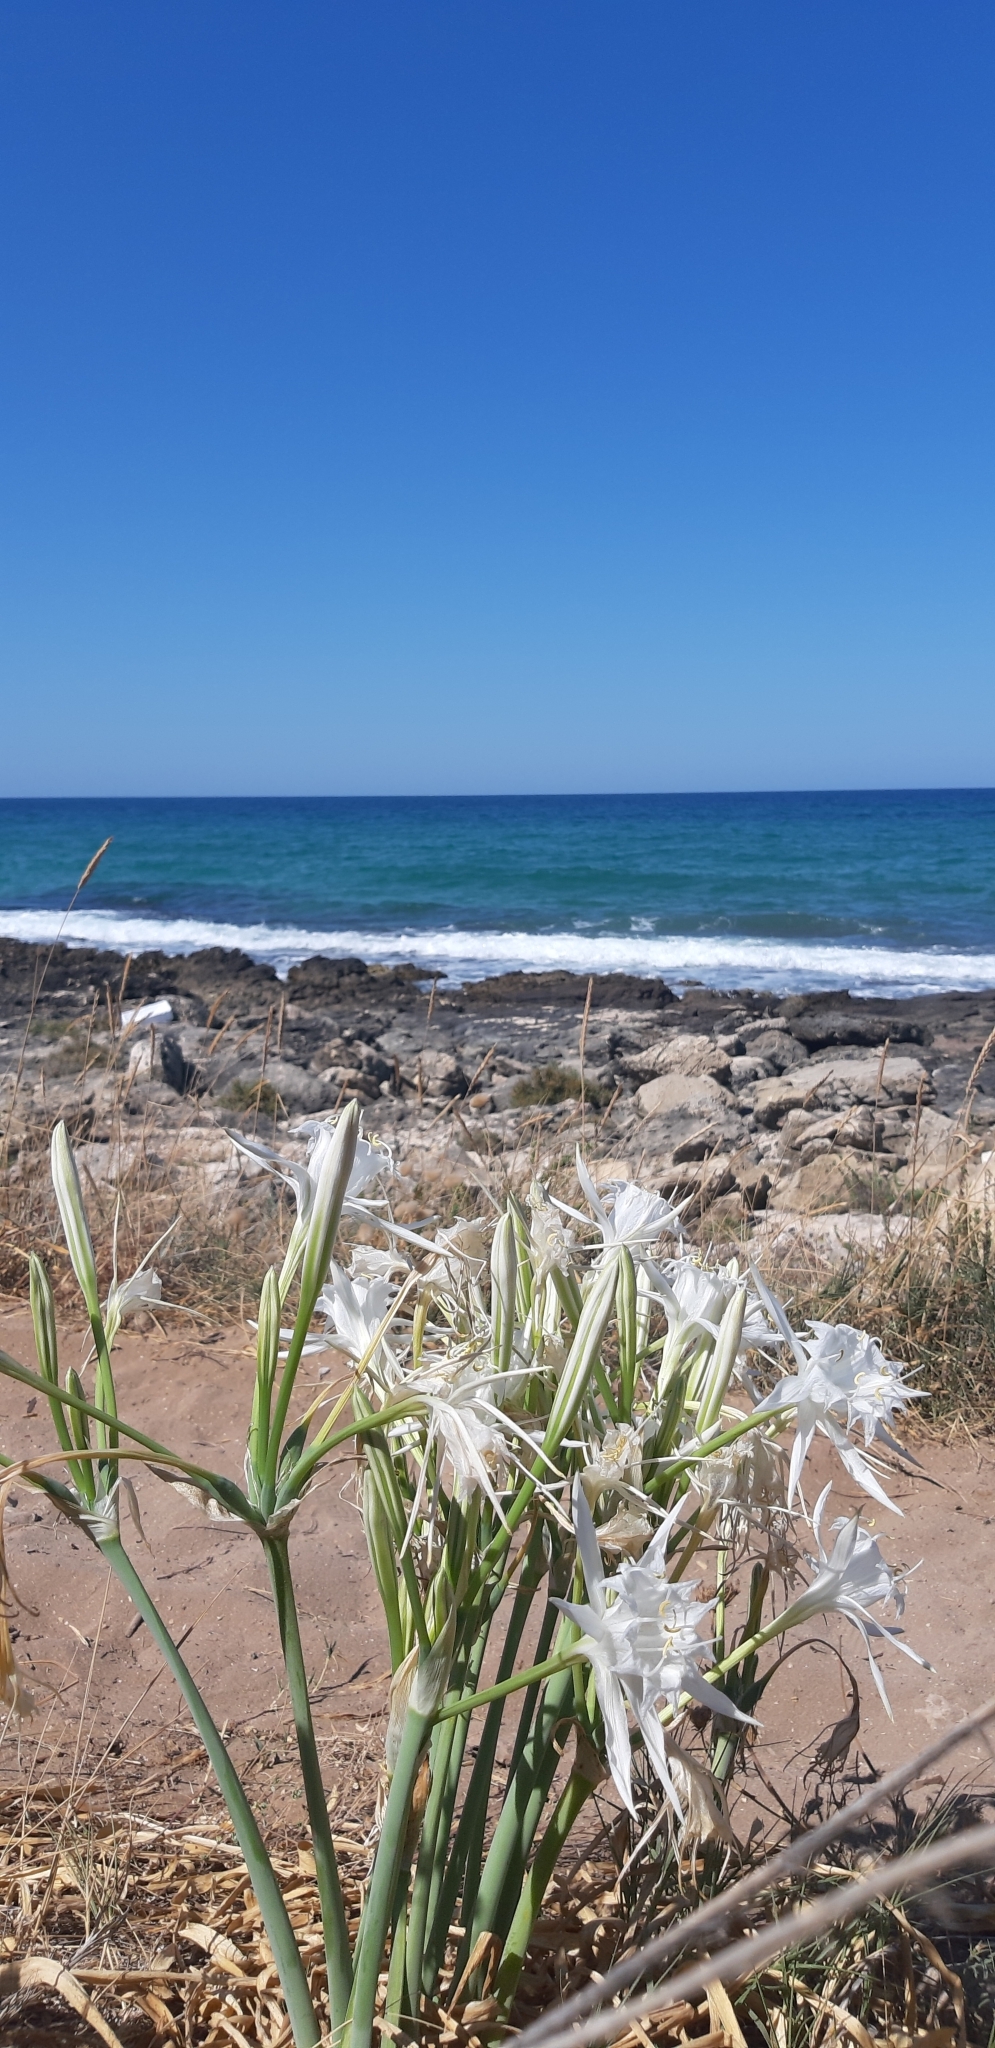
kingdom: Plantae
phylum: Tracheophyta
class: Liliopsida
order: Asparagales
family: Amaryllidaceae
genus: Pancratium
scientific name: Pancratium maritimum
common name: Sea-daffodil
